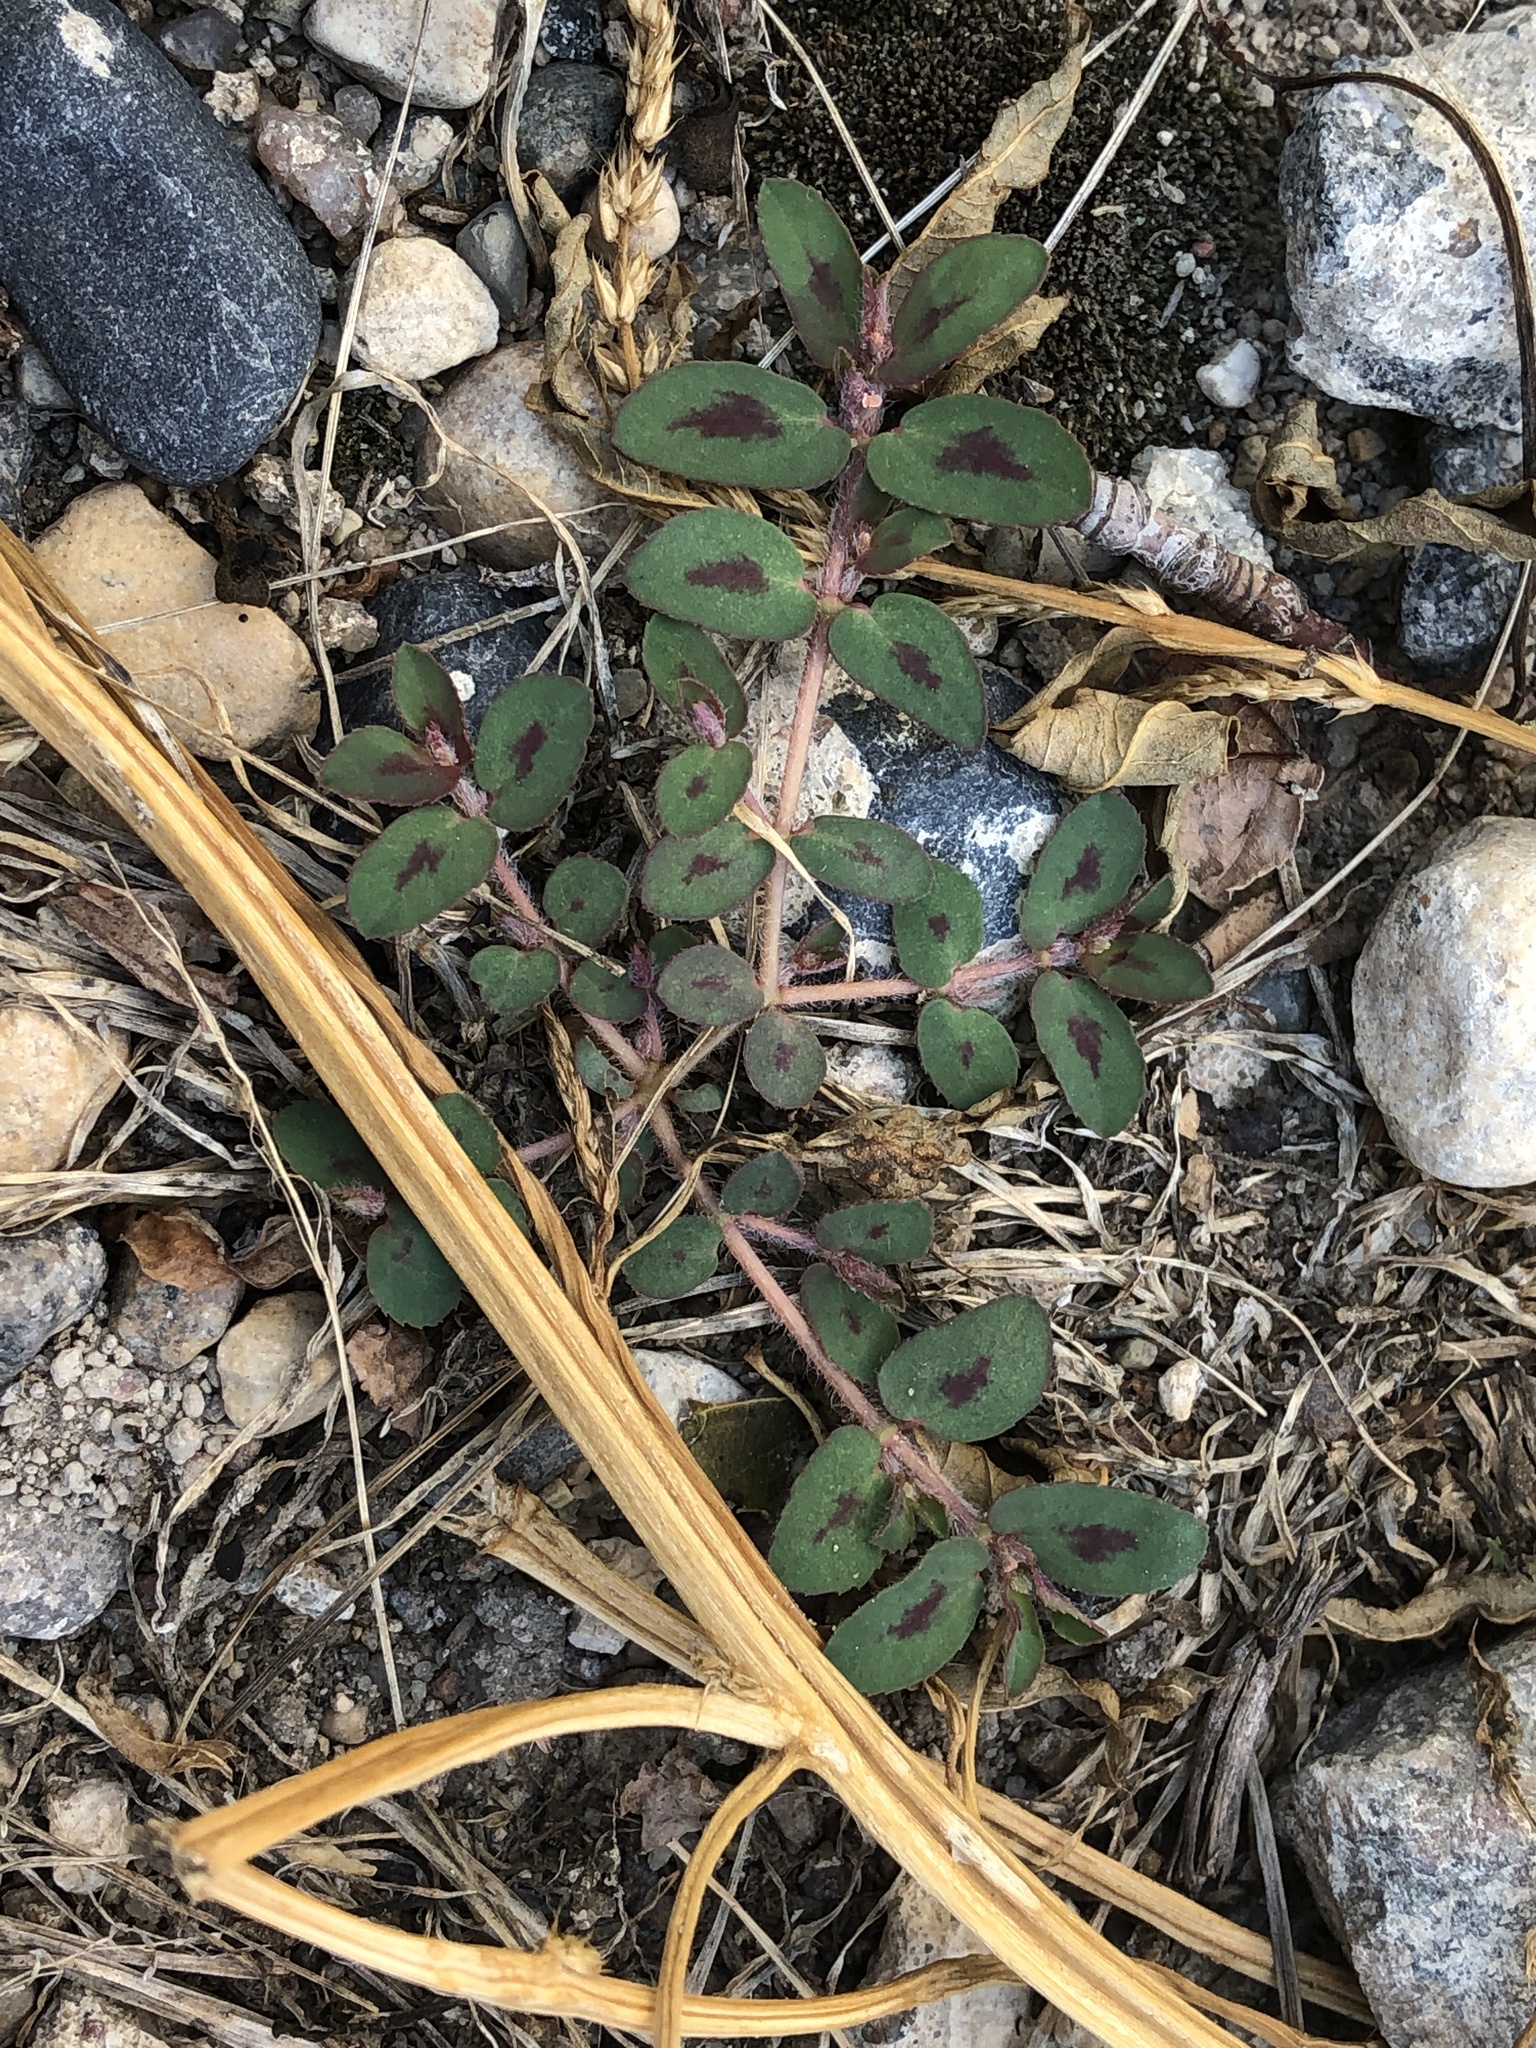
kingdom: Plantae
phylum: Tracheophyta
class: Magnoliopsida
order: Malpighiales
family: Euphorbiaceae
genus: Euphorbia
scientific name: Euphorbia maculata
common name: Spotted spurge
